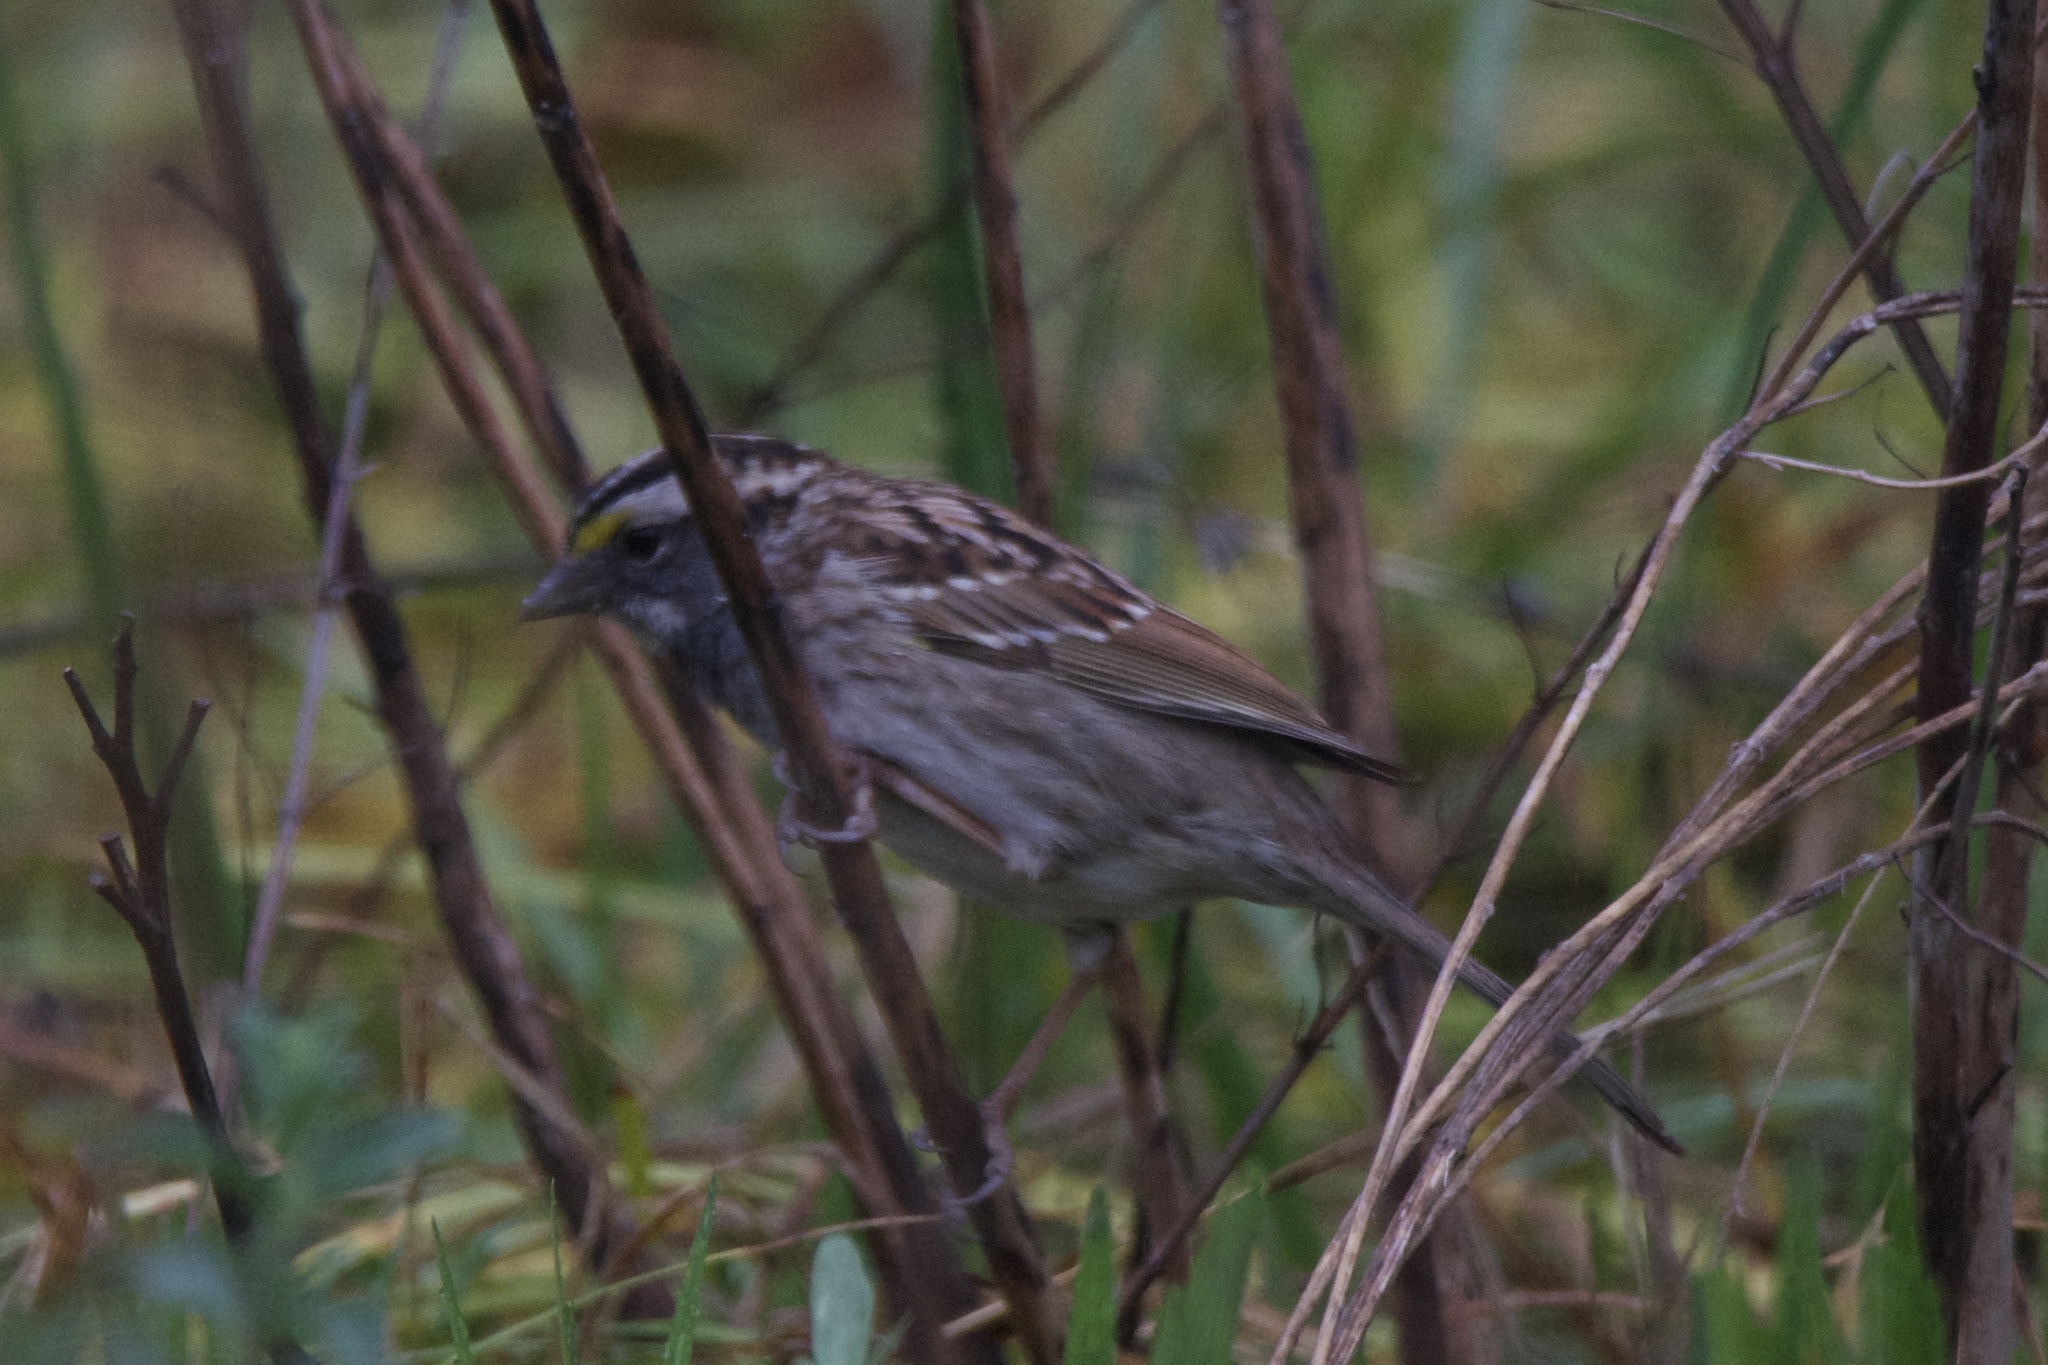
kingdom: Animalia
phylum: Chordata
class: Aves
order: Passeriformes
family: Passerellidae
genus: Zonotrichia
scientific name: Zonotrichia albicollis
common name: White-throated sparrow
